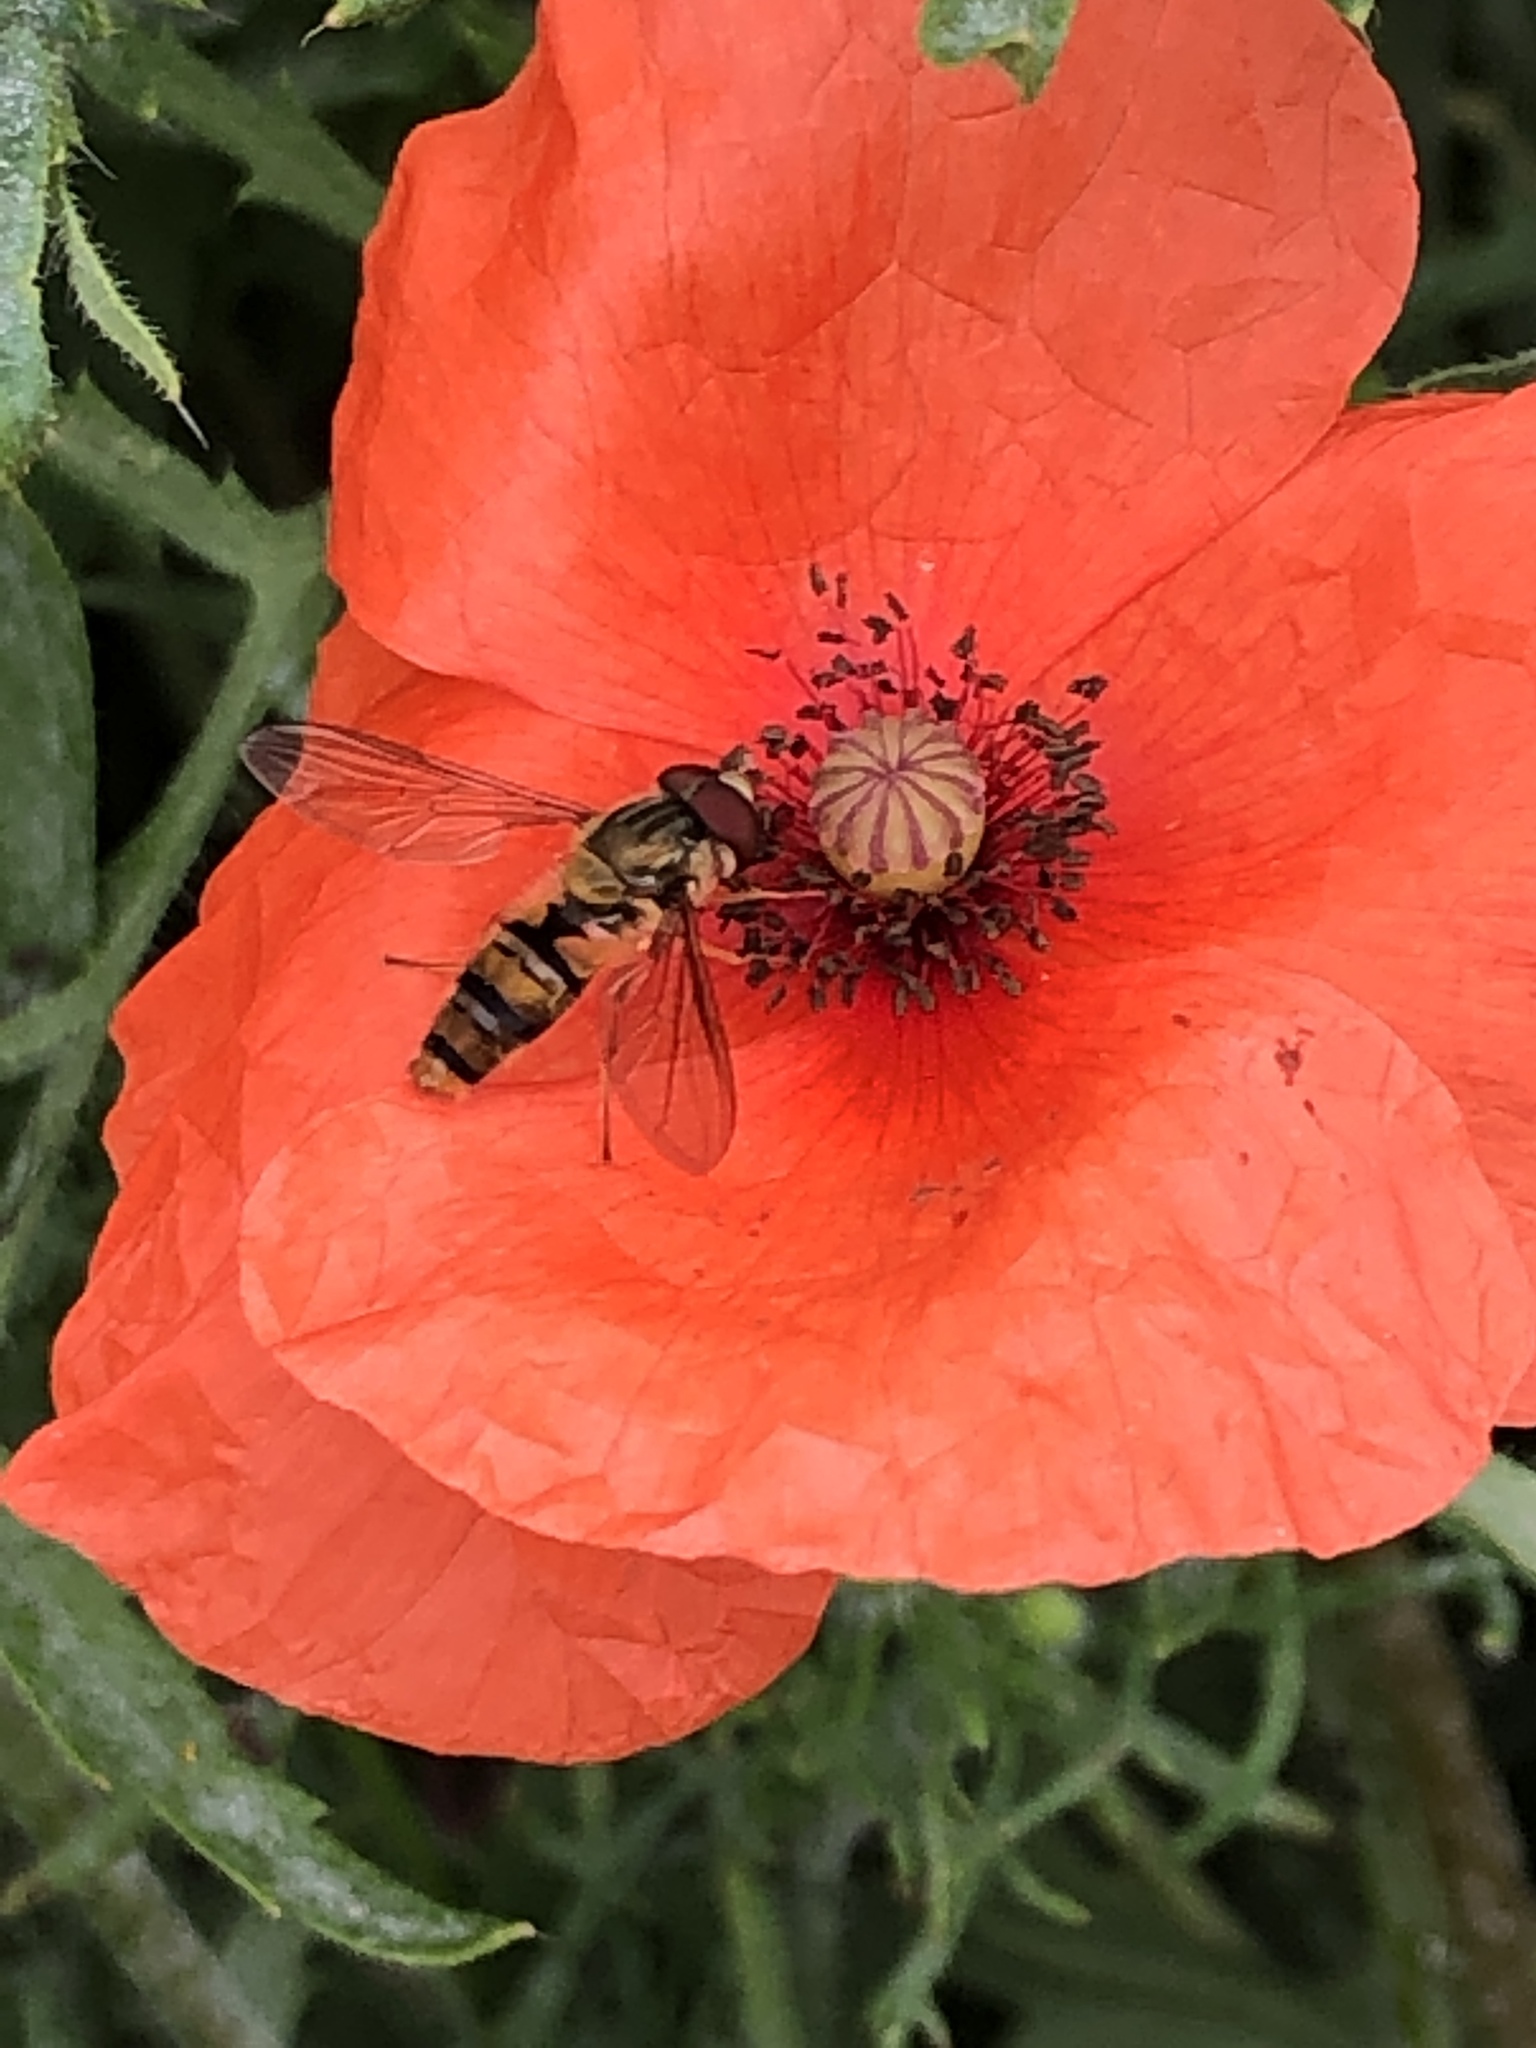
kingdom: Animalia
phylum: Arthropoda
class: Insecta
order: Diptera
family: Syrphidae
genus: Episyrphus
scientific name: Episyrphus balteatus
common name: Marmalade hoverfly
